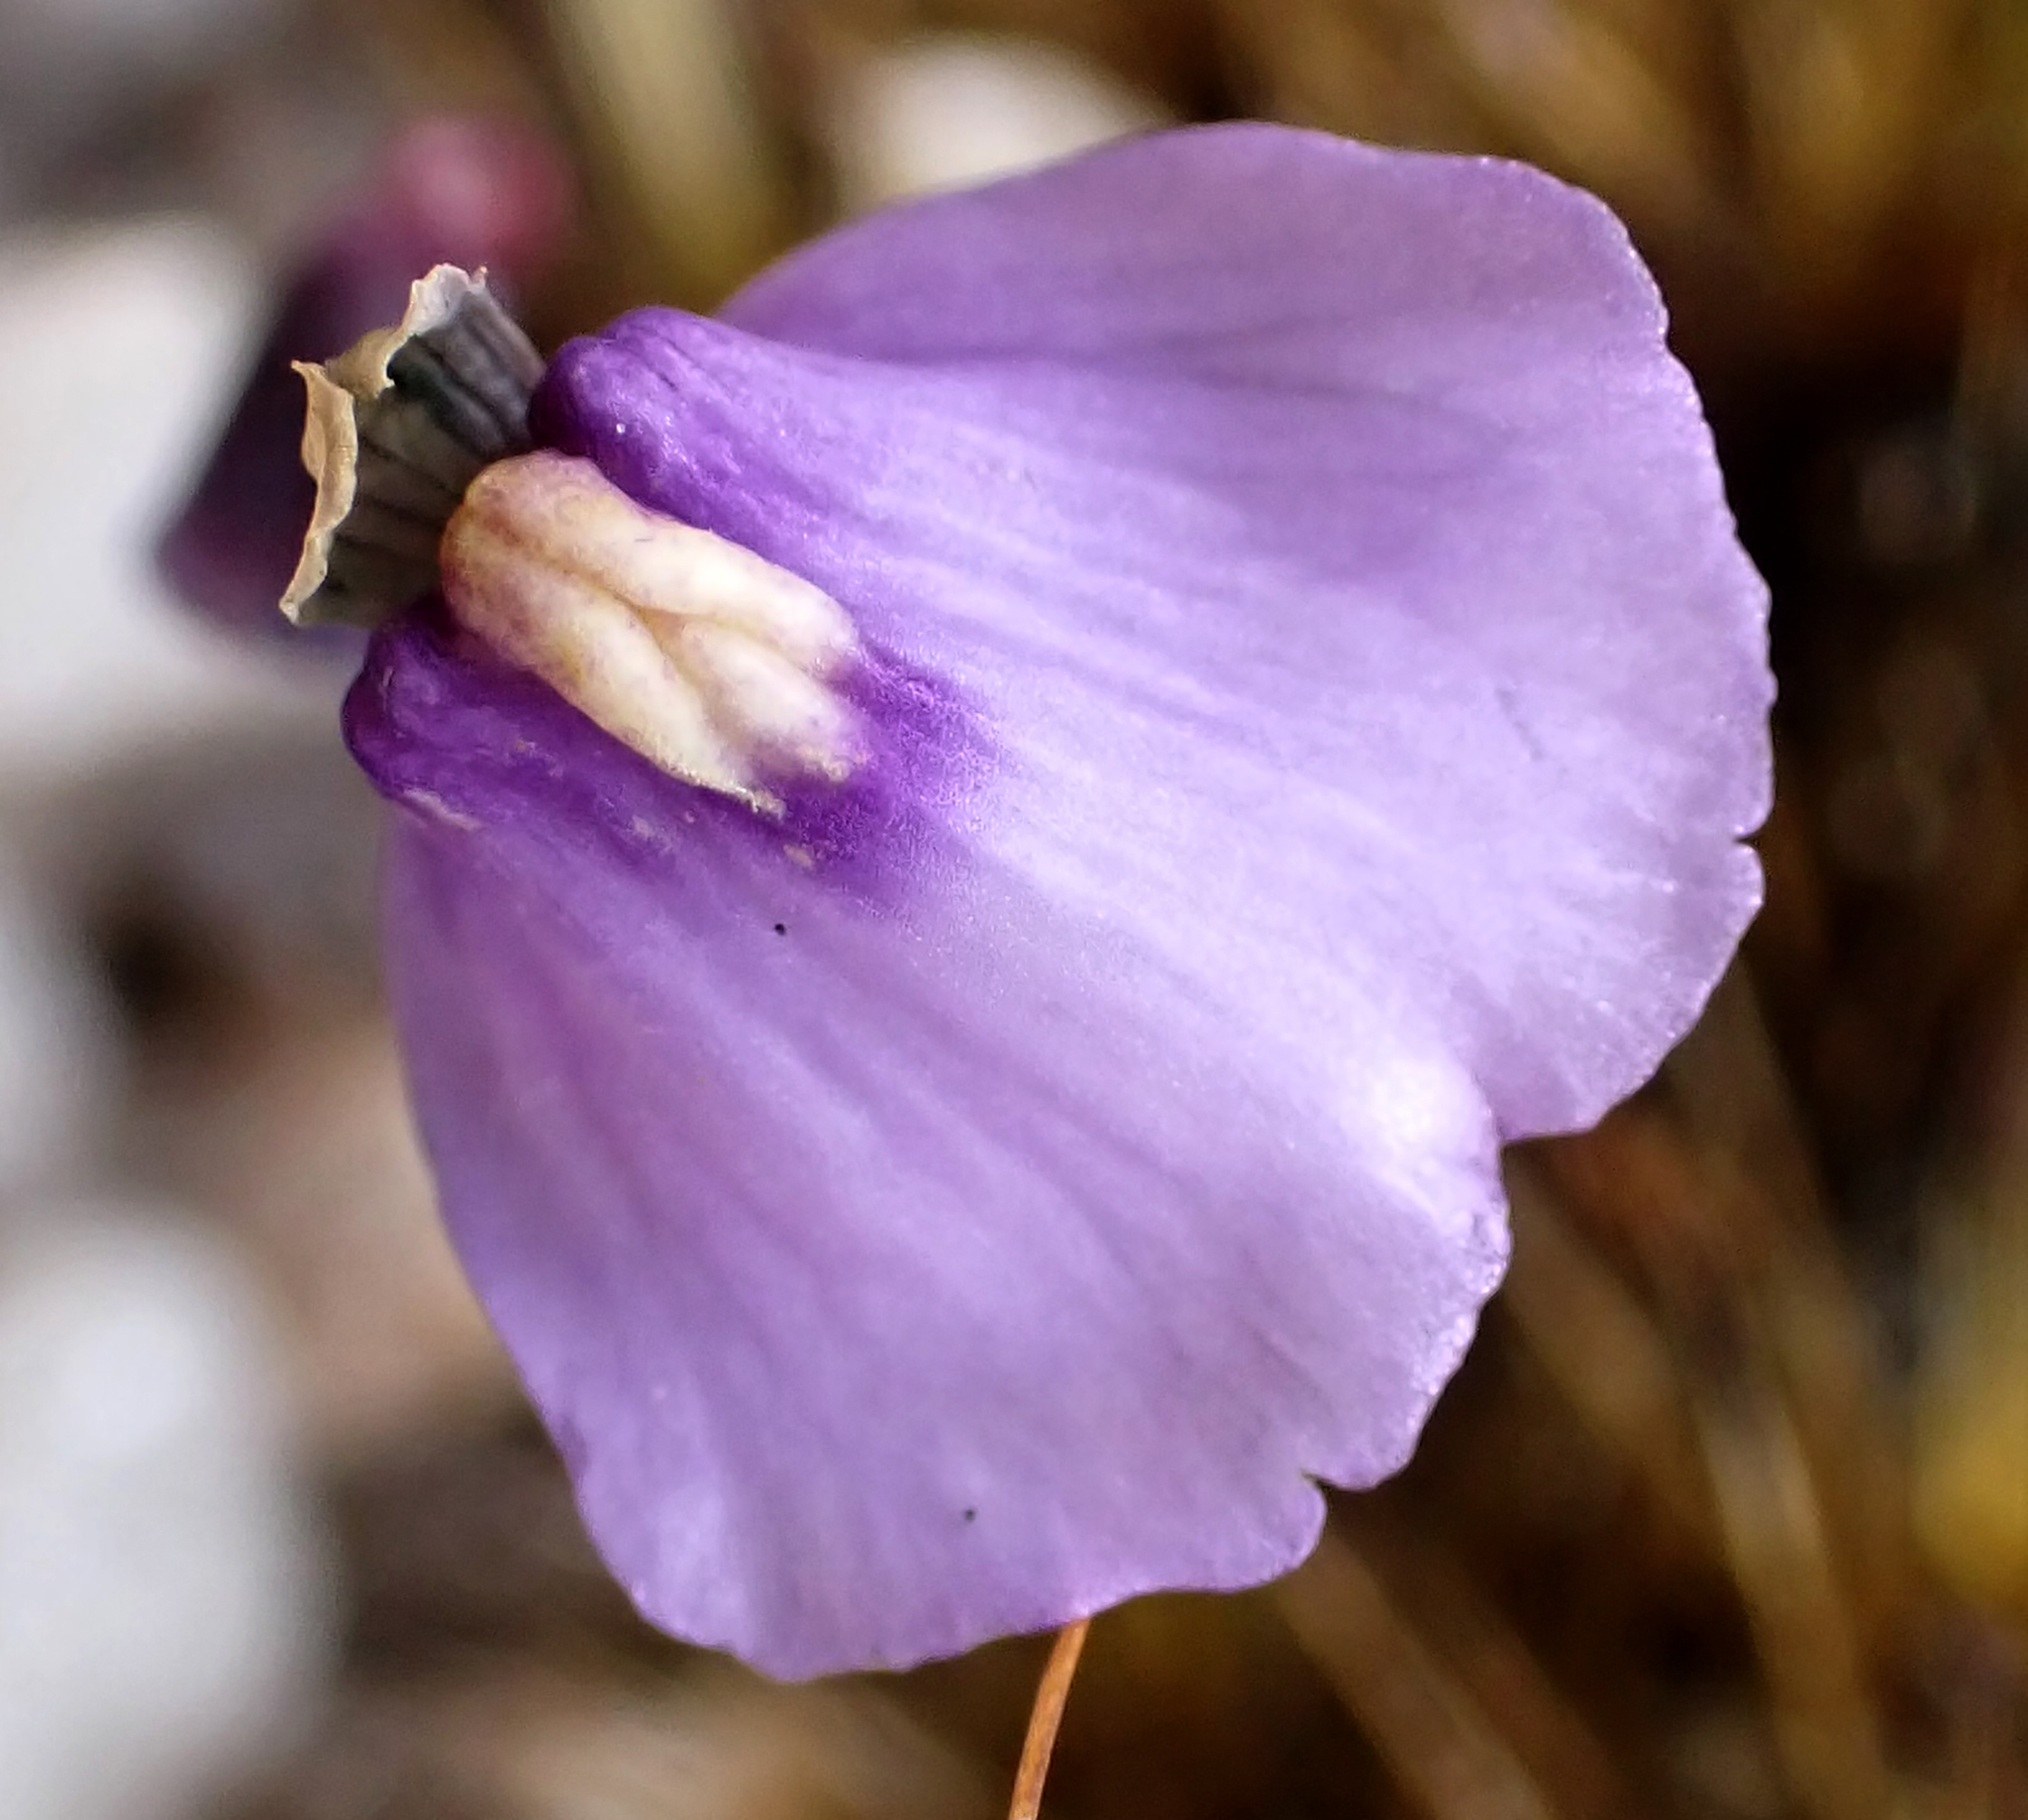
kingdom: Plantae
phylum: Tracheophyta
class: Magnoliopsida
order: Lamiales
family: Lentibulariaceae
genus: Utricularia
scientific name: Utricularia dichotoma
